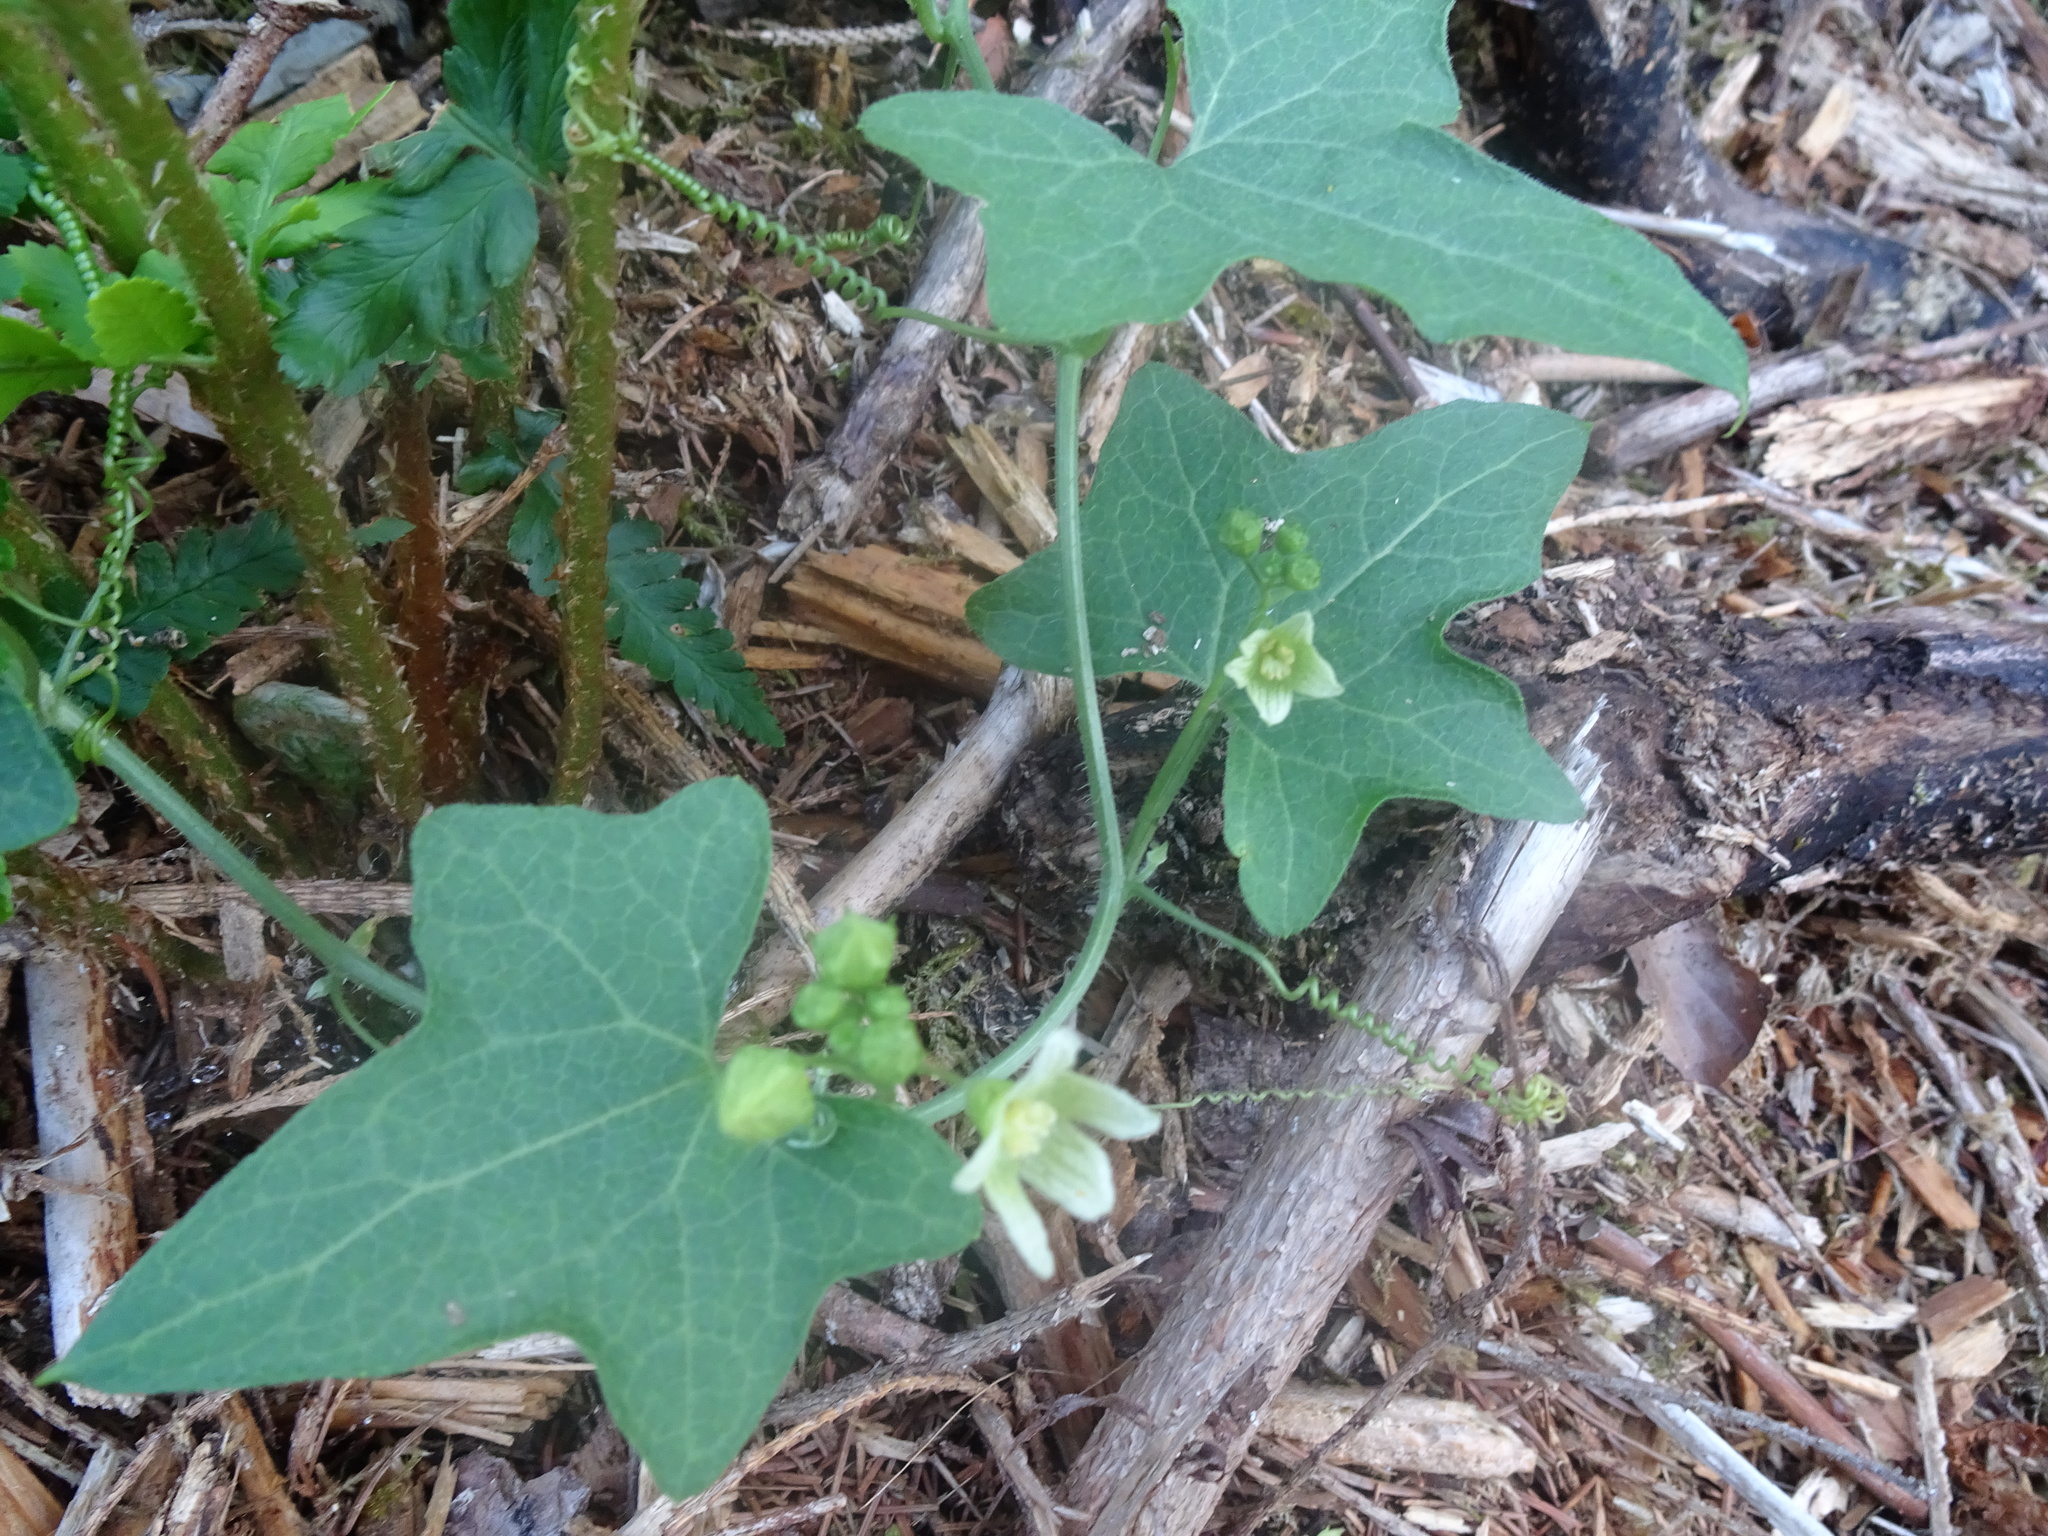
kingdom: Plantae
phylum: Tracheophyta
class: Magnoliopsida
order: Cucurbitales
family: Cucurbitaceae
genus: Bryonia
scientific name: Bryonia dioica
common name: White bryony
